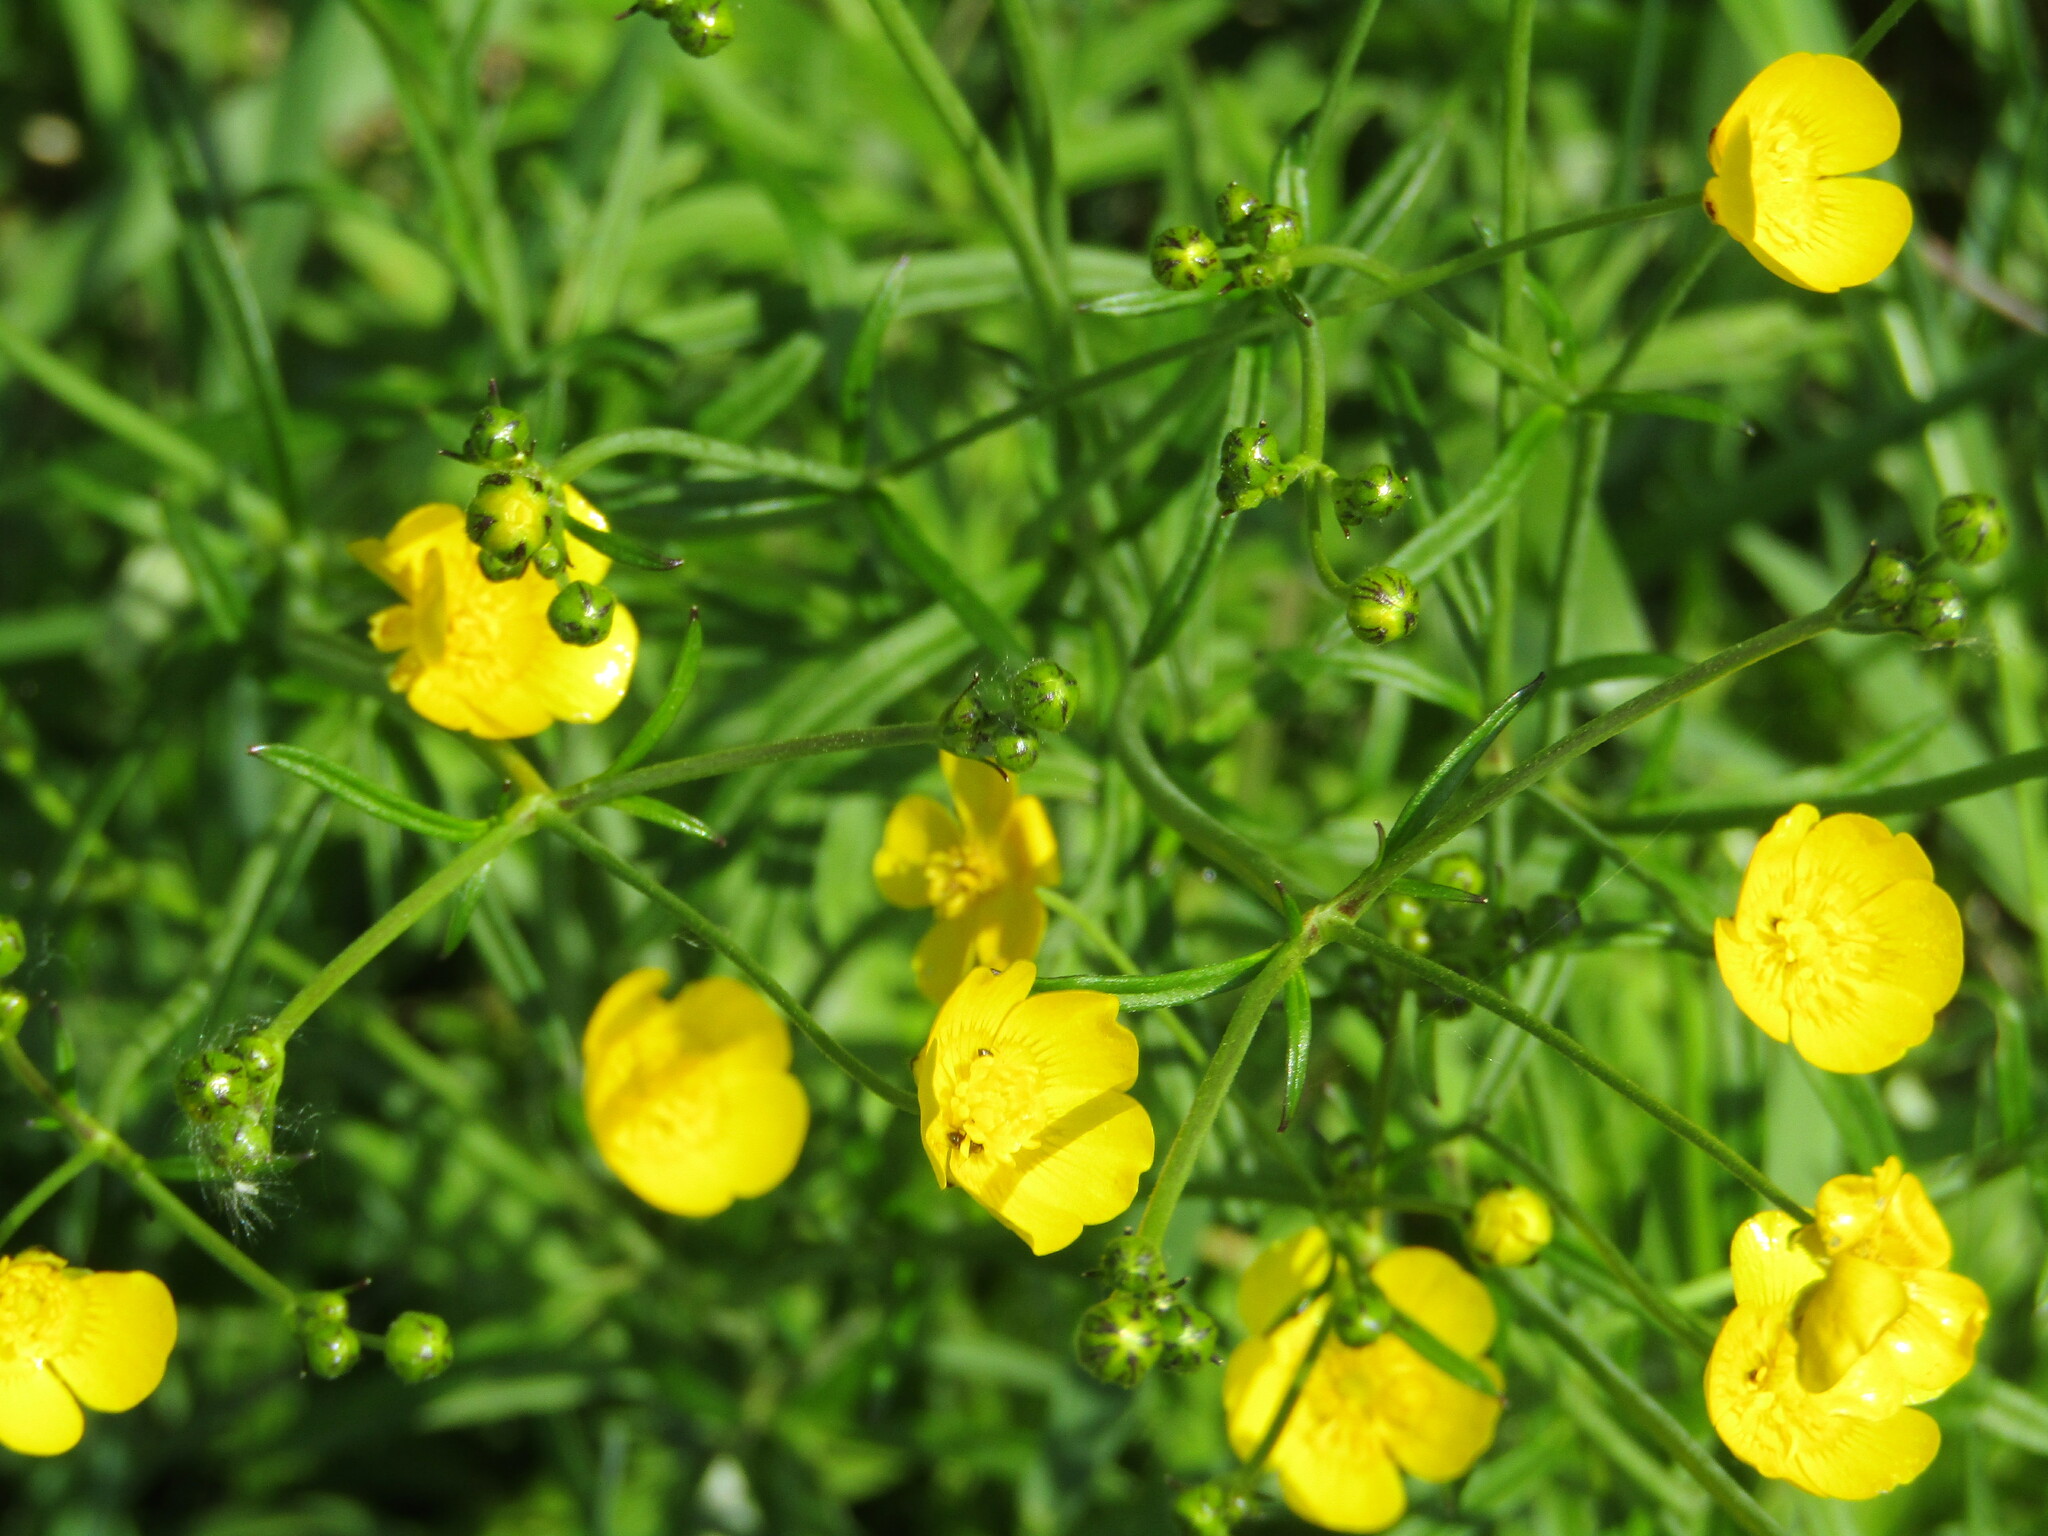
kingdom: Plantae
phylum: Tracheophyta
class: Magnoliopsida
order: Ranunculales
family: Ranunculaceae
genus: Ranunculus
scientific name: Ranunculus acris
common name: Meadow buttercup
